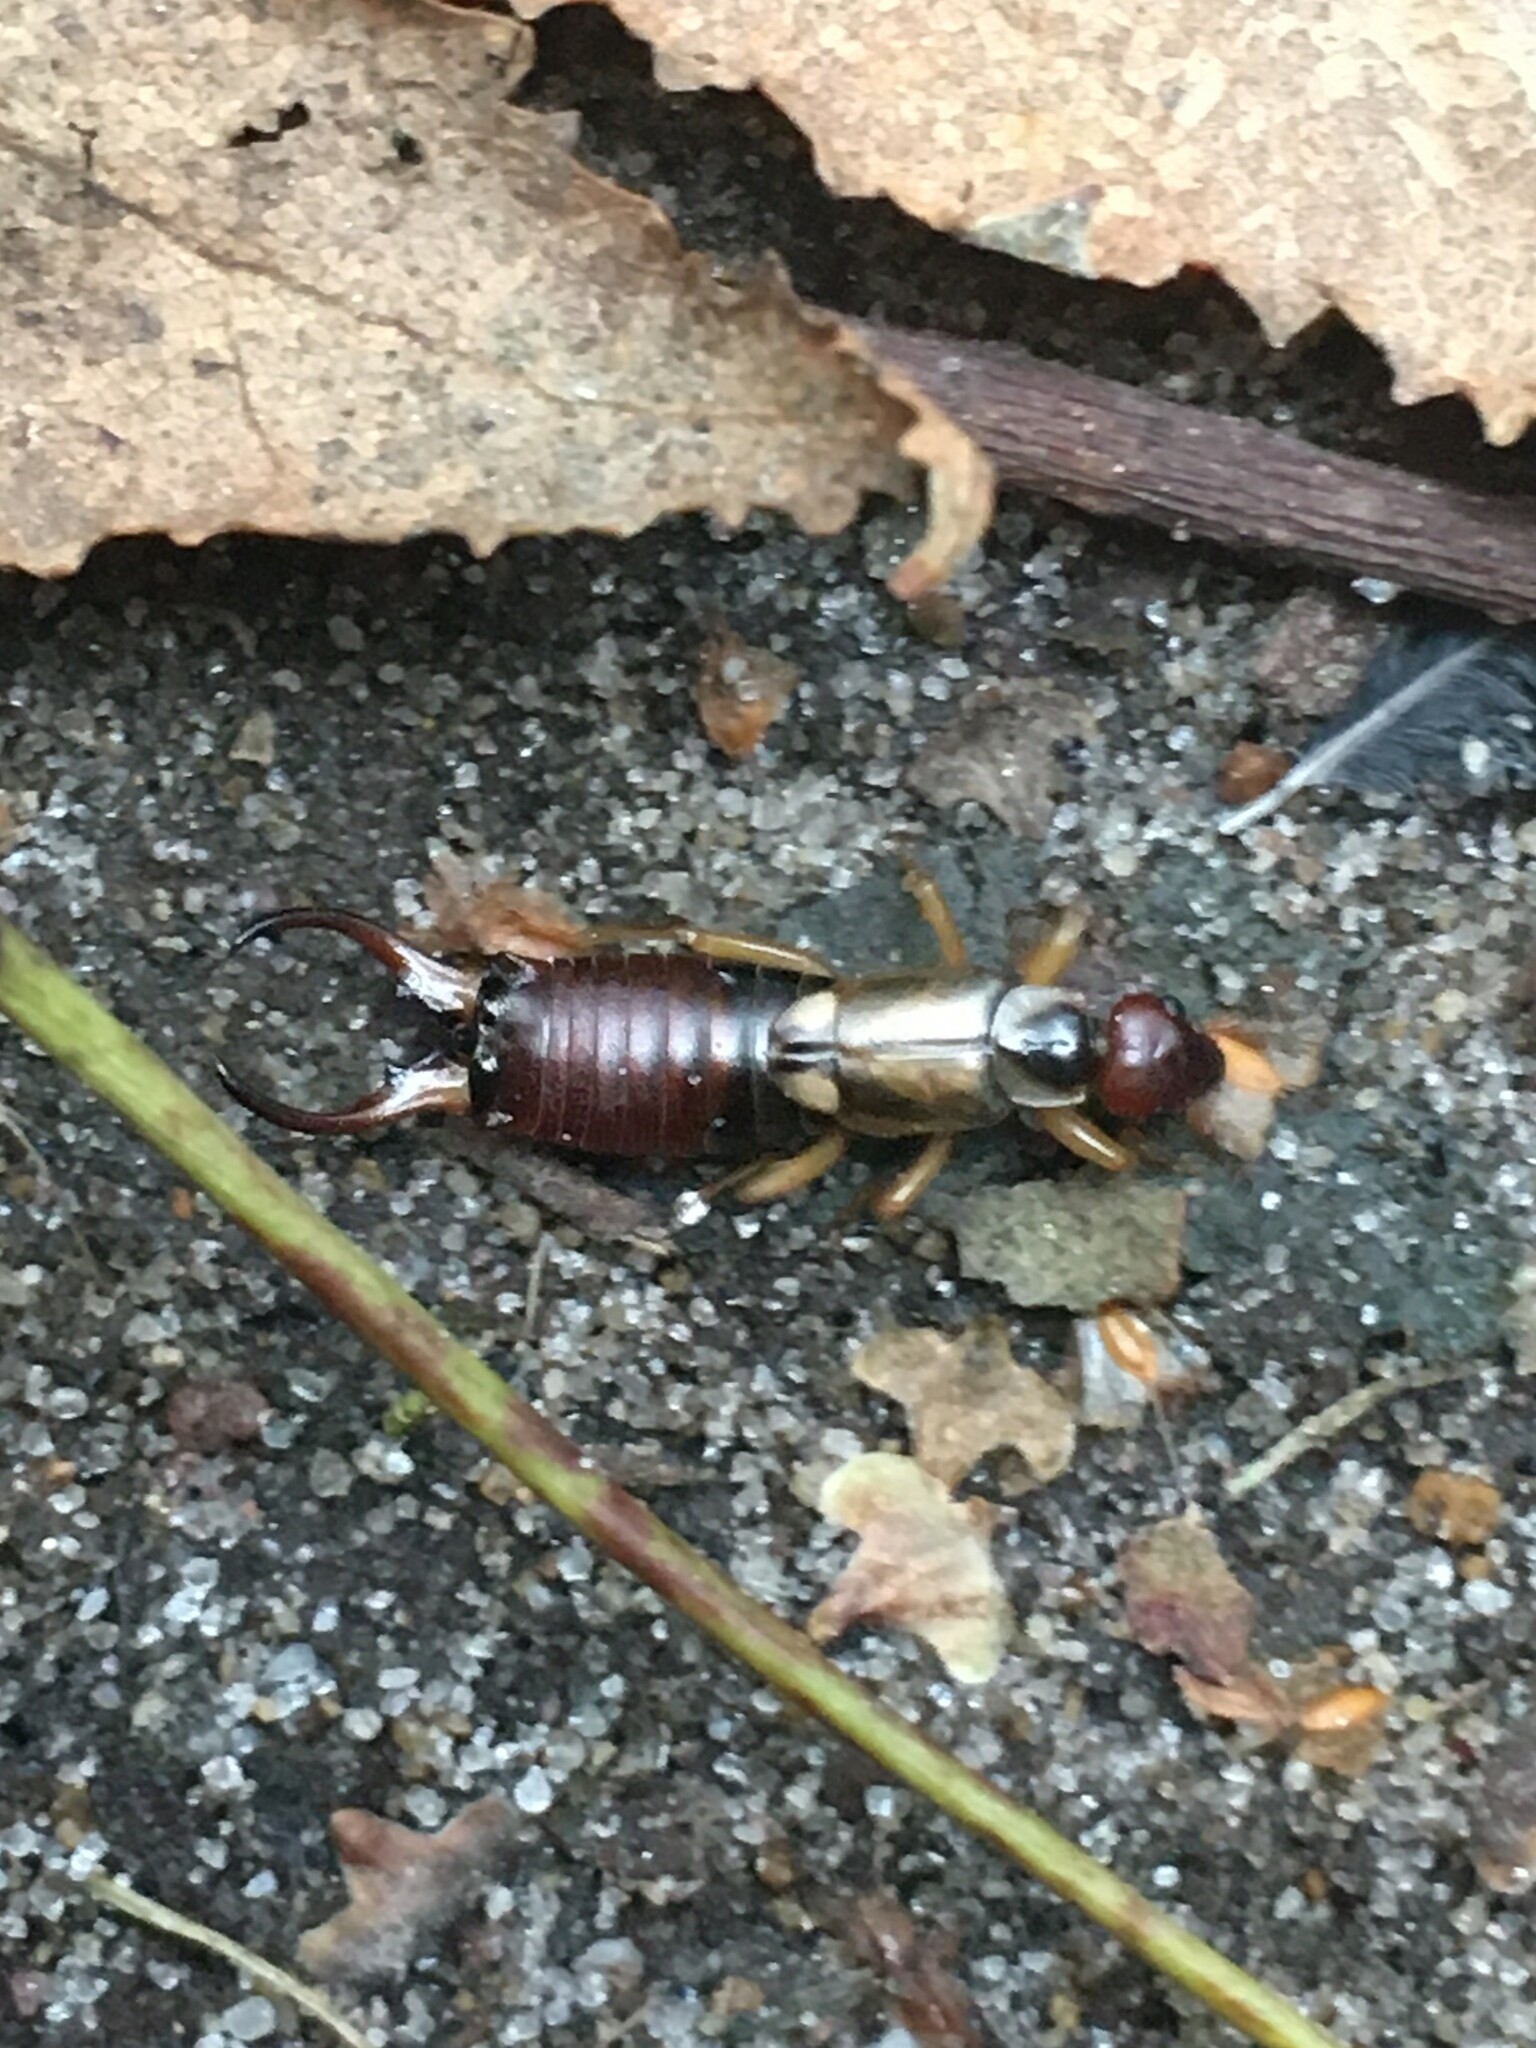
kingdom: Animalia
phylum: Arthropoda
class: Insecta
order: Dermaptera
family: Forficulidae
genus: Forficula
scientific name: Forficula auricularia
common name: European earwig
